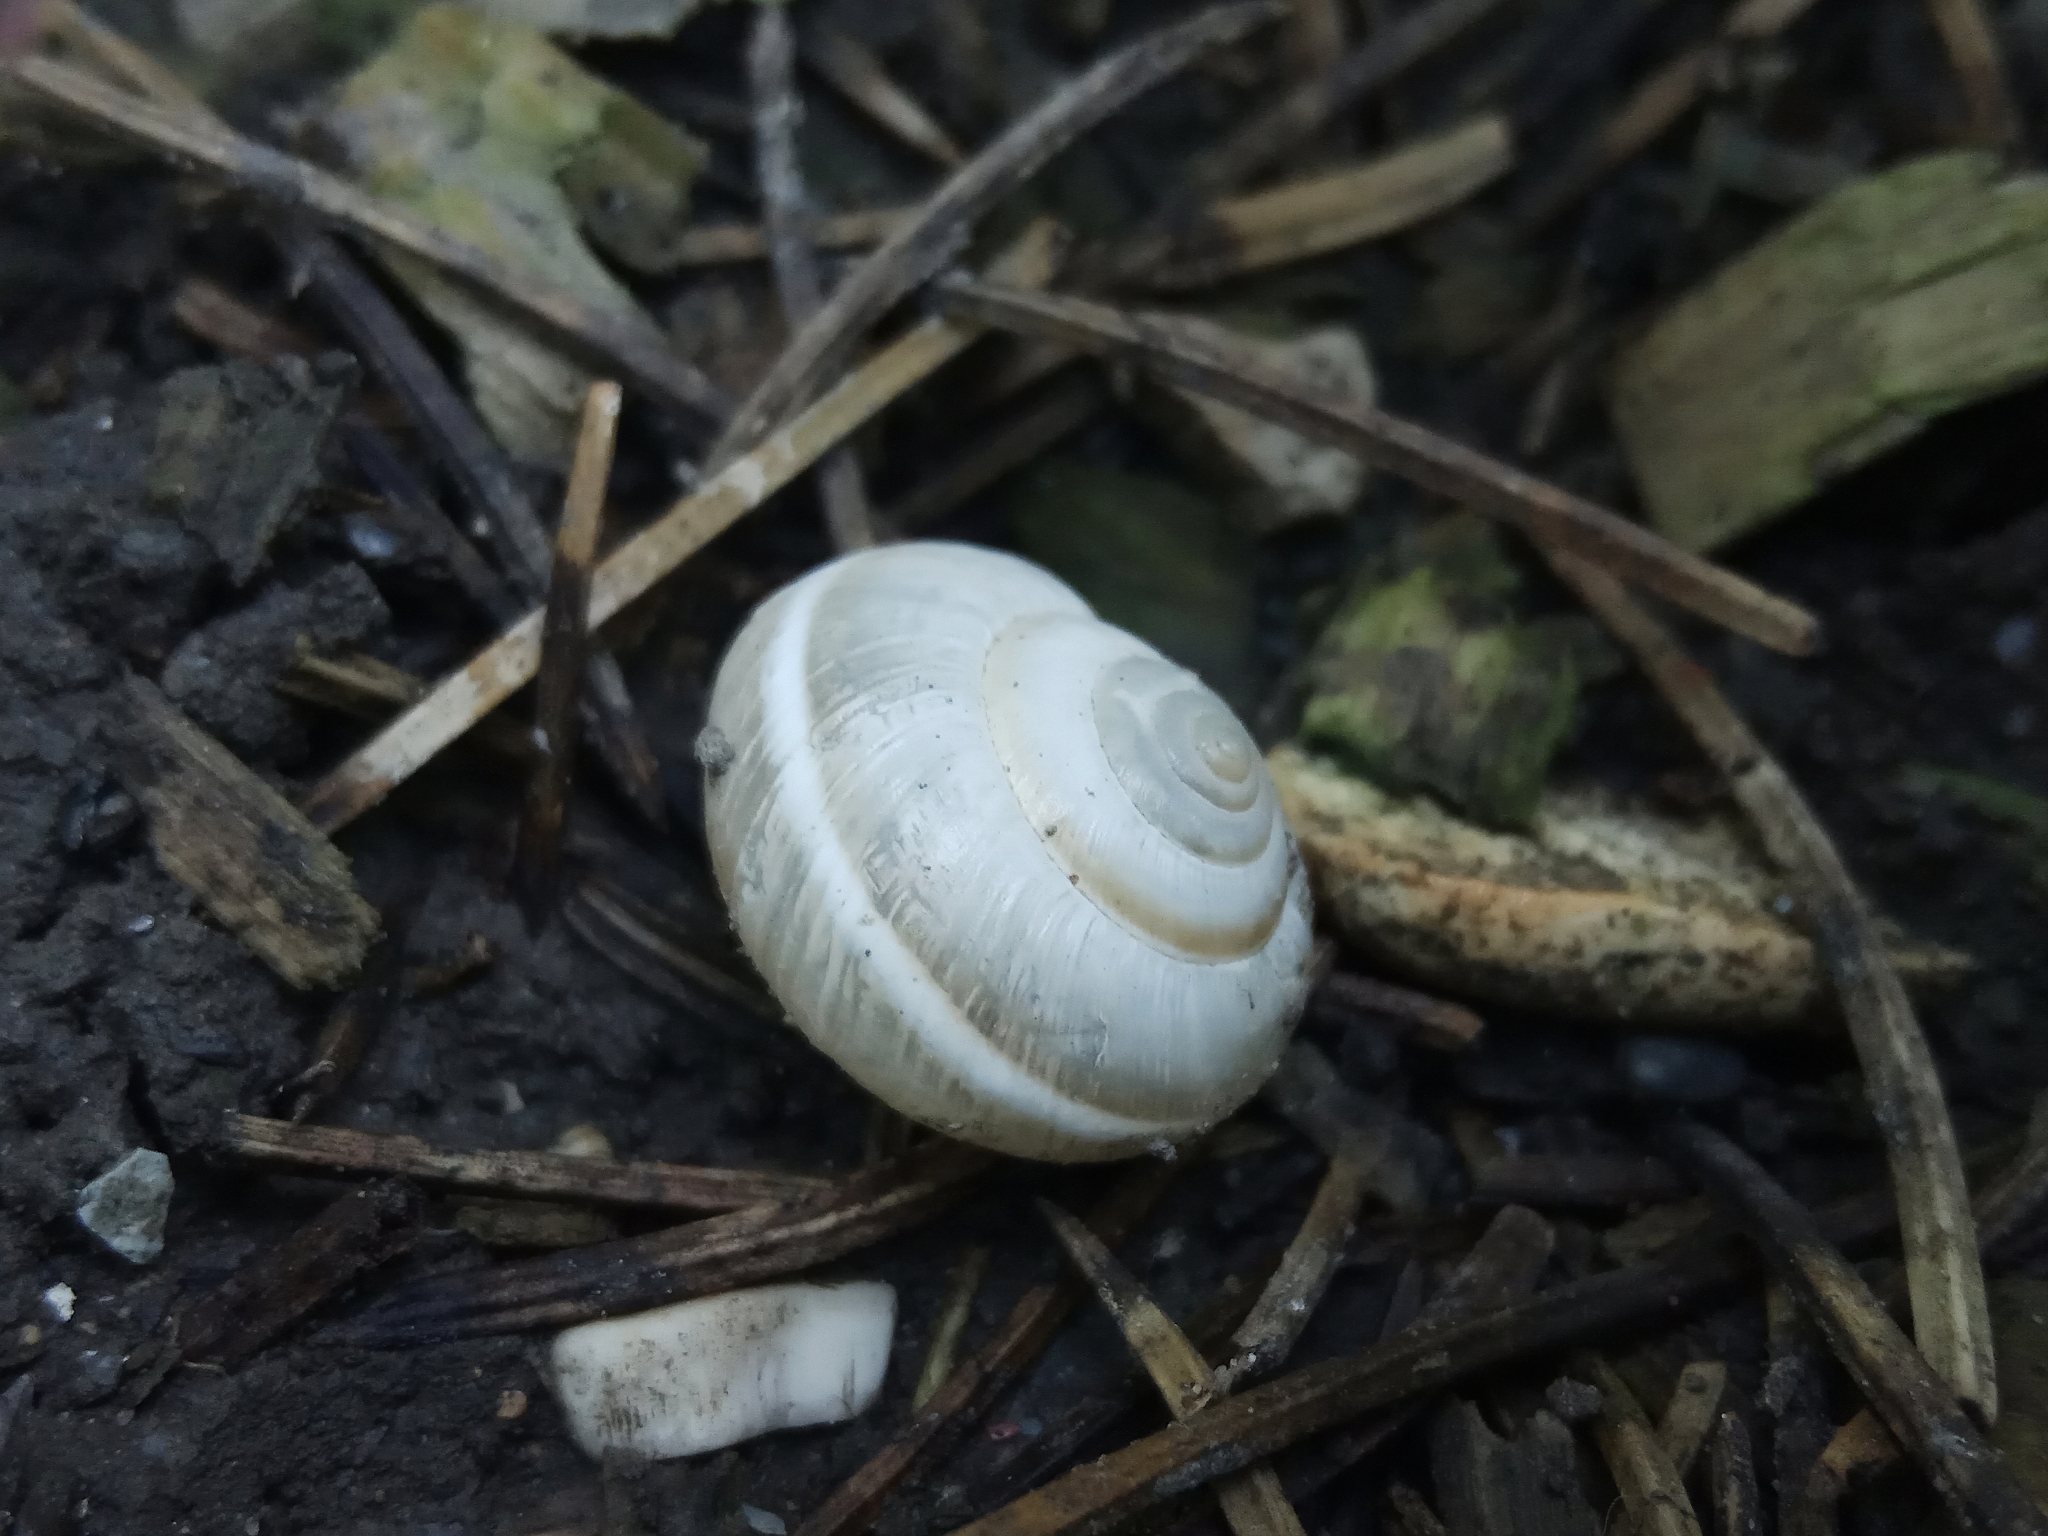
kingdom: Animalia
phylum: Mollusca
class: Gastropoda
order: Stylommatophora
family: Hygromiidae
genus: Harmozica
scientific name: Harmozica ravergiensis
